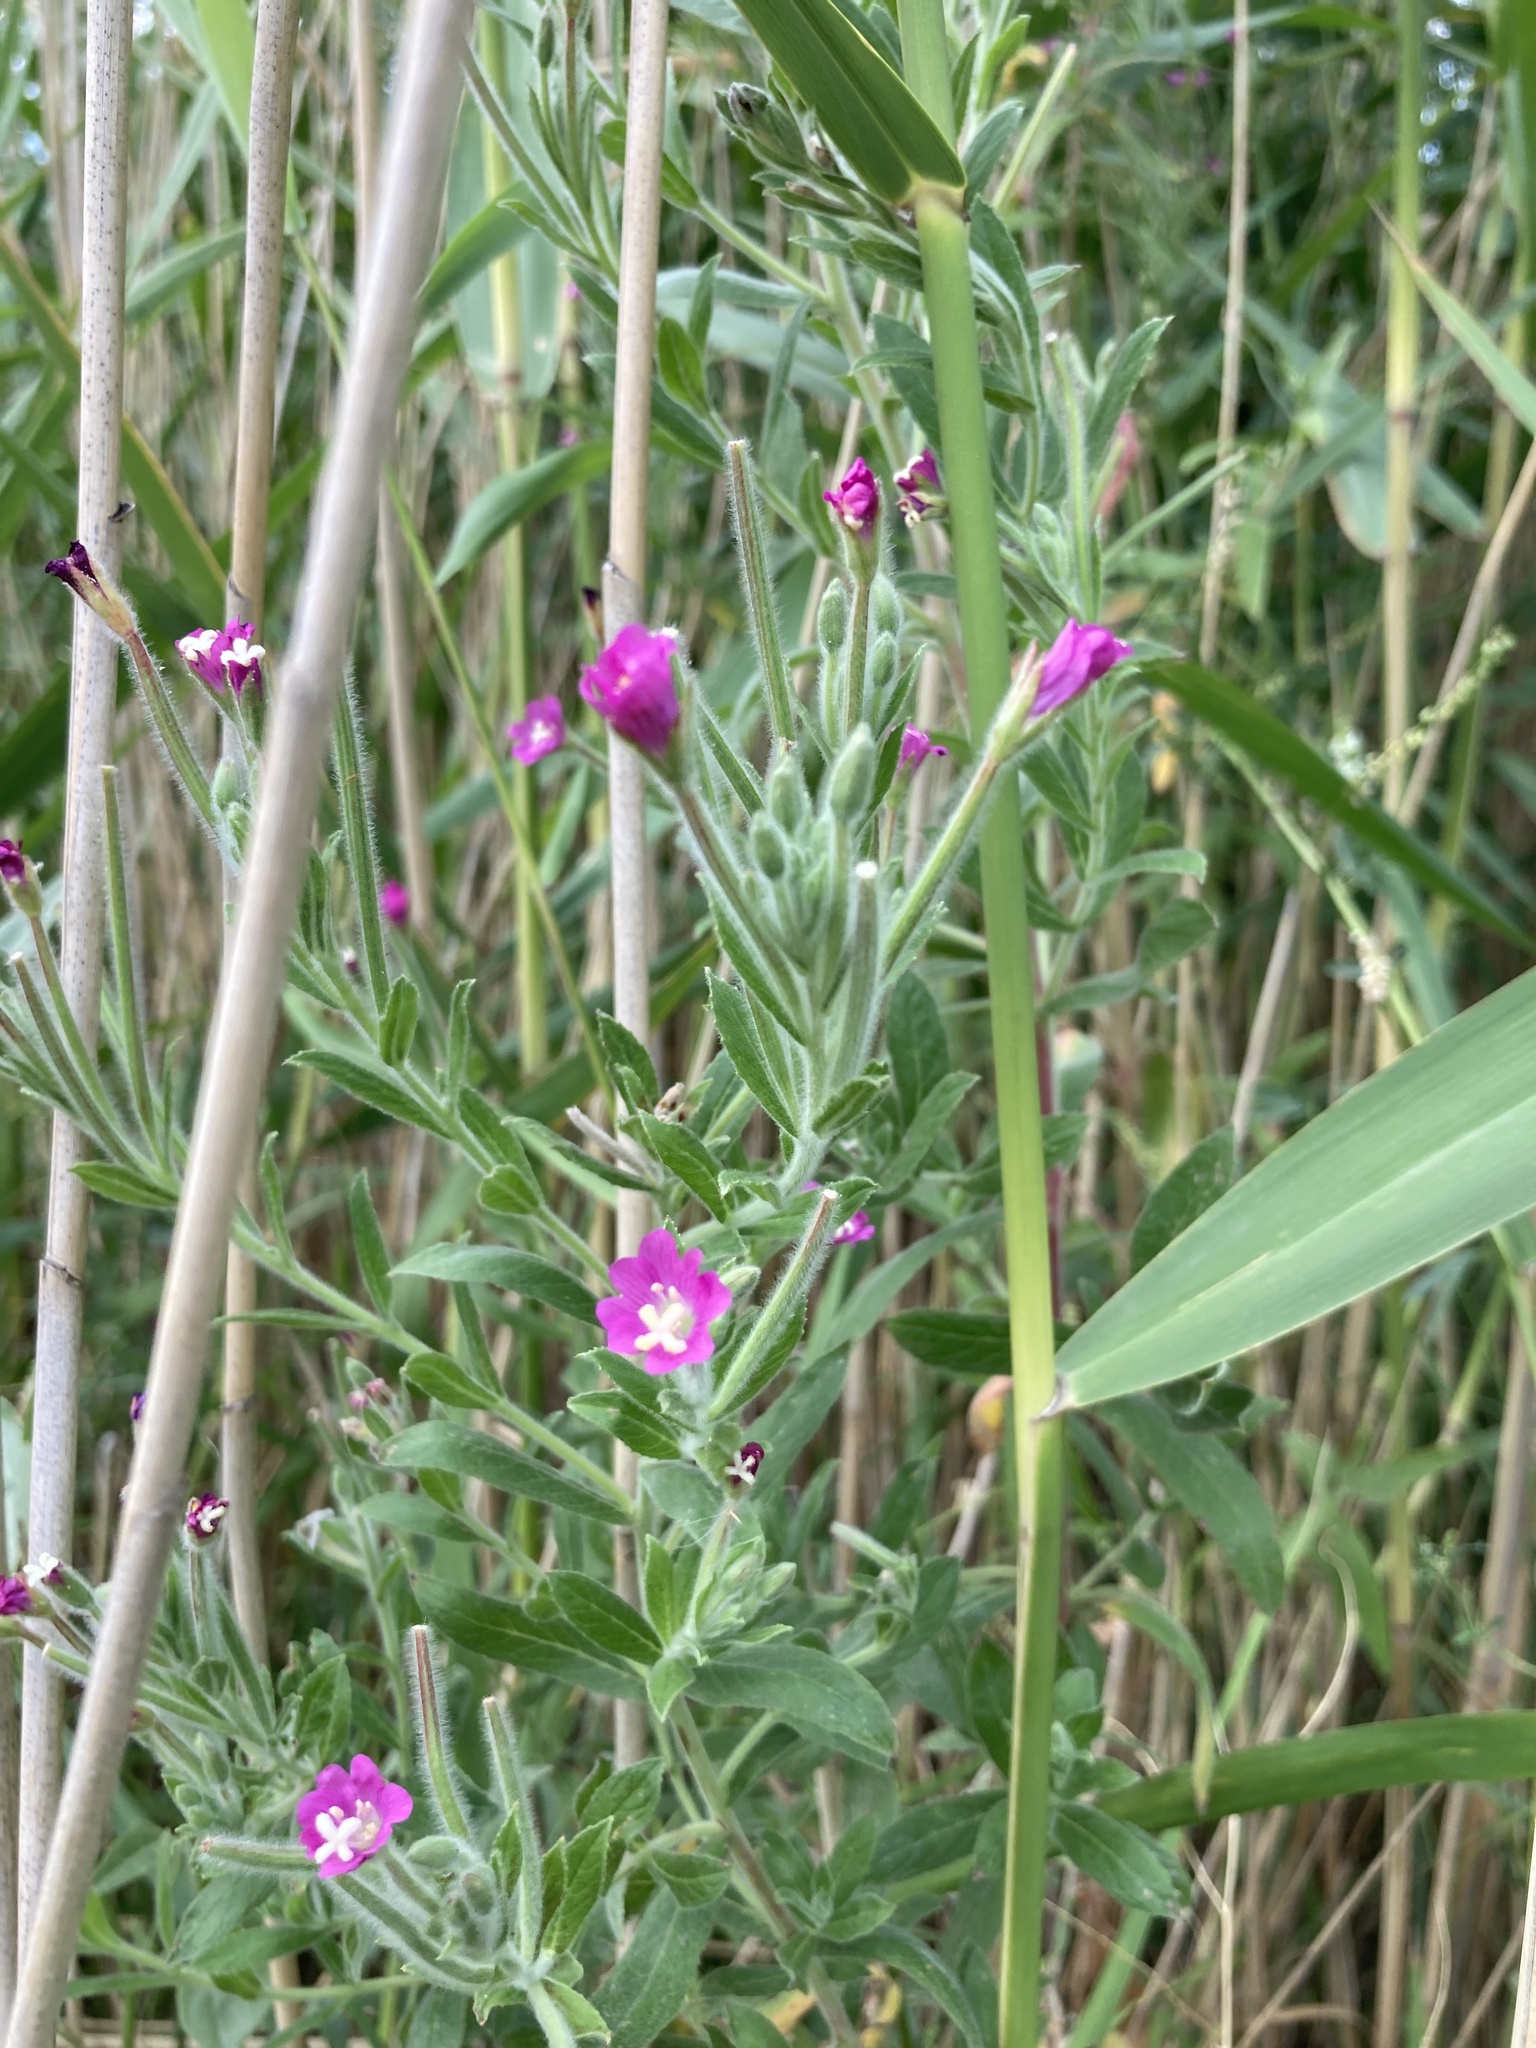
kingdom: Plantae
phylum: Tracheophyta
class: Magnoliopsida
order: Myrtales
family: Onagraceae
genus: Epilobium
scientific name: Epilobium hirsutum
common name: Great willowherb
